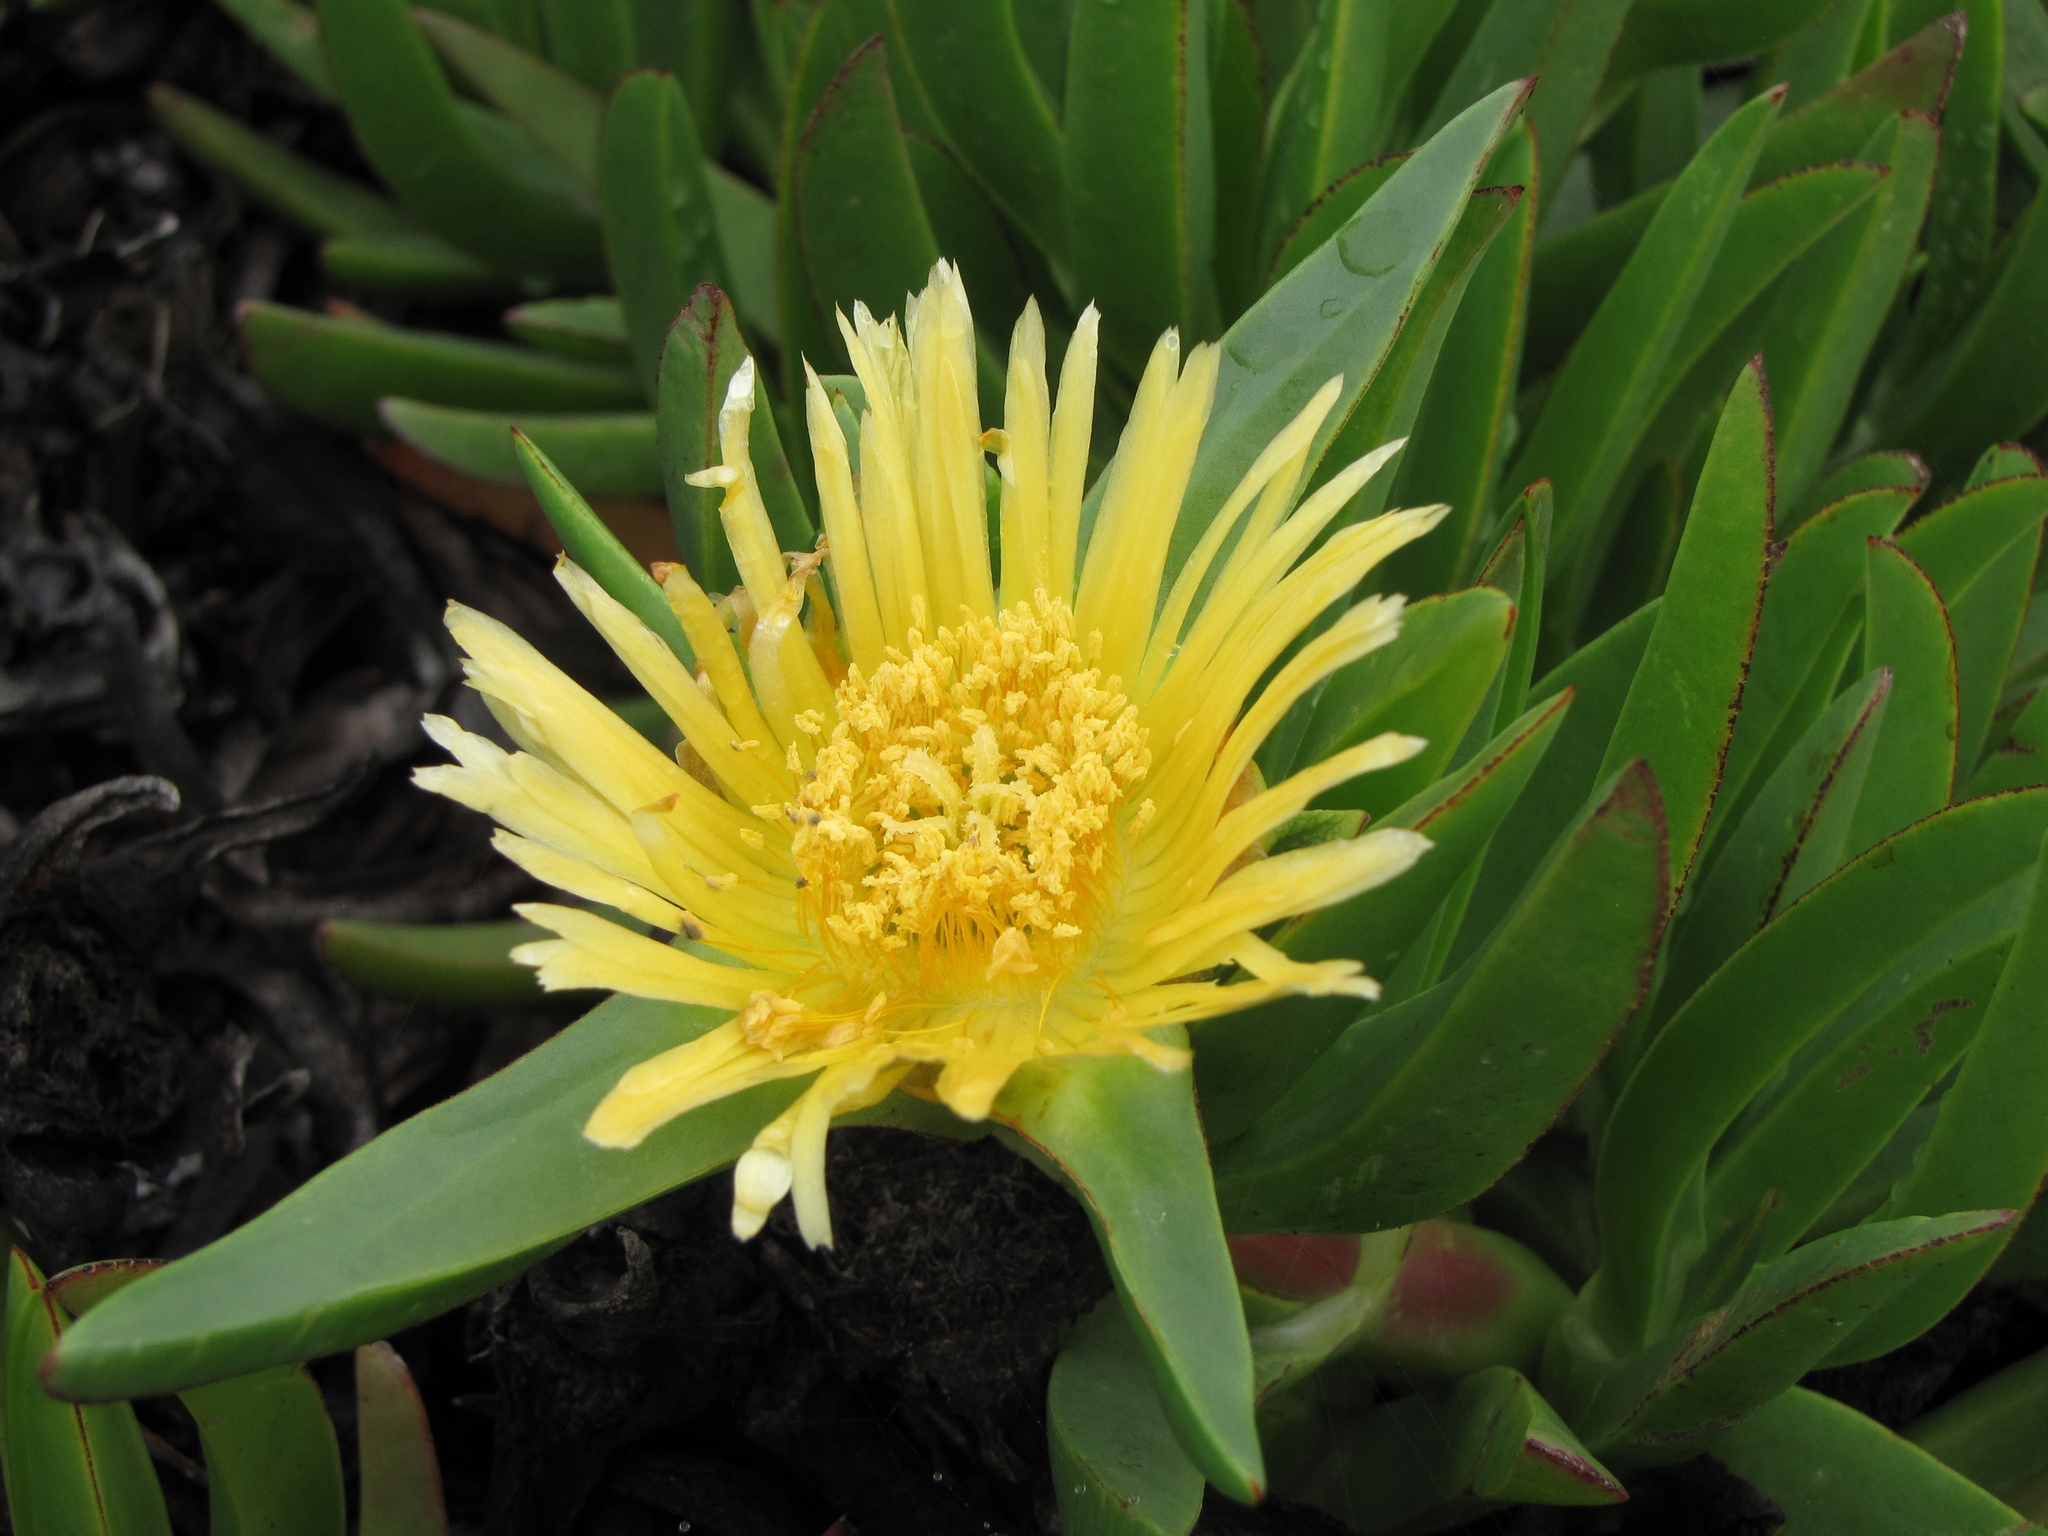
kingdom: Plantae
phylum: Tracheophyta
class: Magnoliopsida
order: Caryophyllales
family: Aizoaceae
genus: Carpobrotus
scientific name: Carpobrotus edulis
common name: Hottentot-fig
